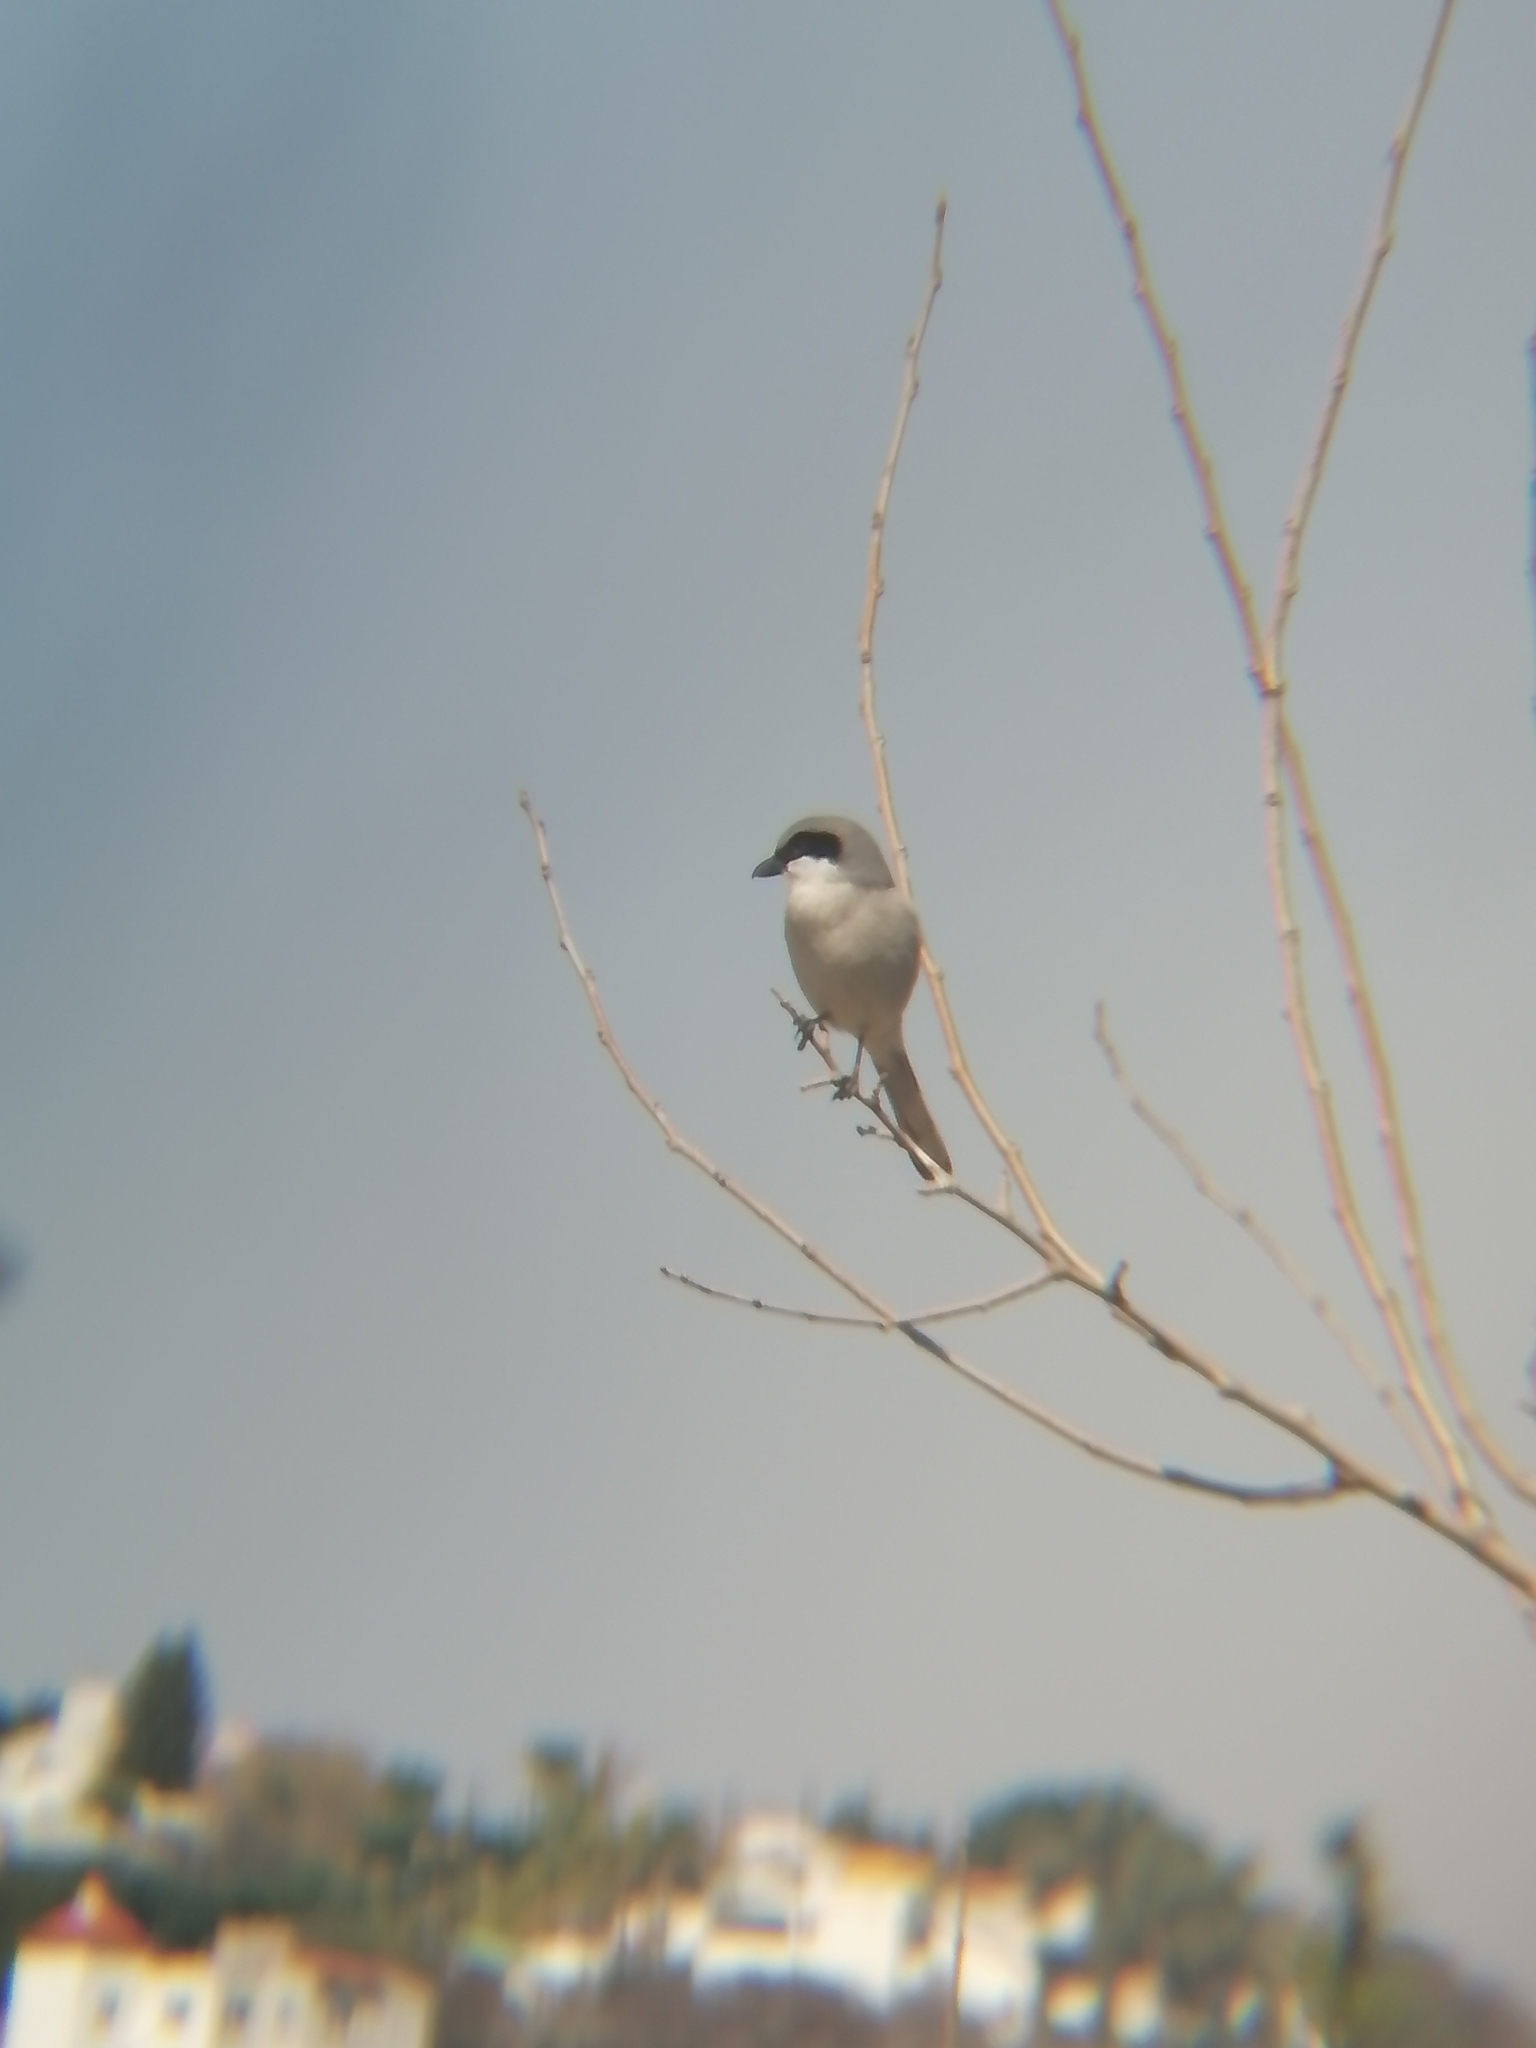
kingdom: Animalia
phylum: Chordata
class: Aves
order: Passeriformes
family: Laniidae
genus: Lanius
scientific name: Lanius ludovicianus
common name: Loggerhead shrike
